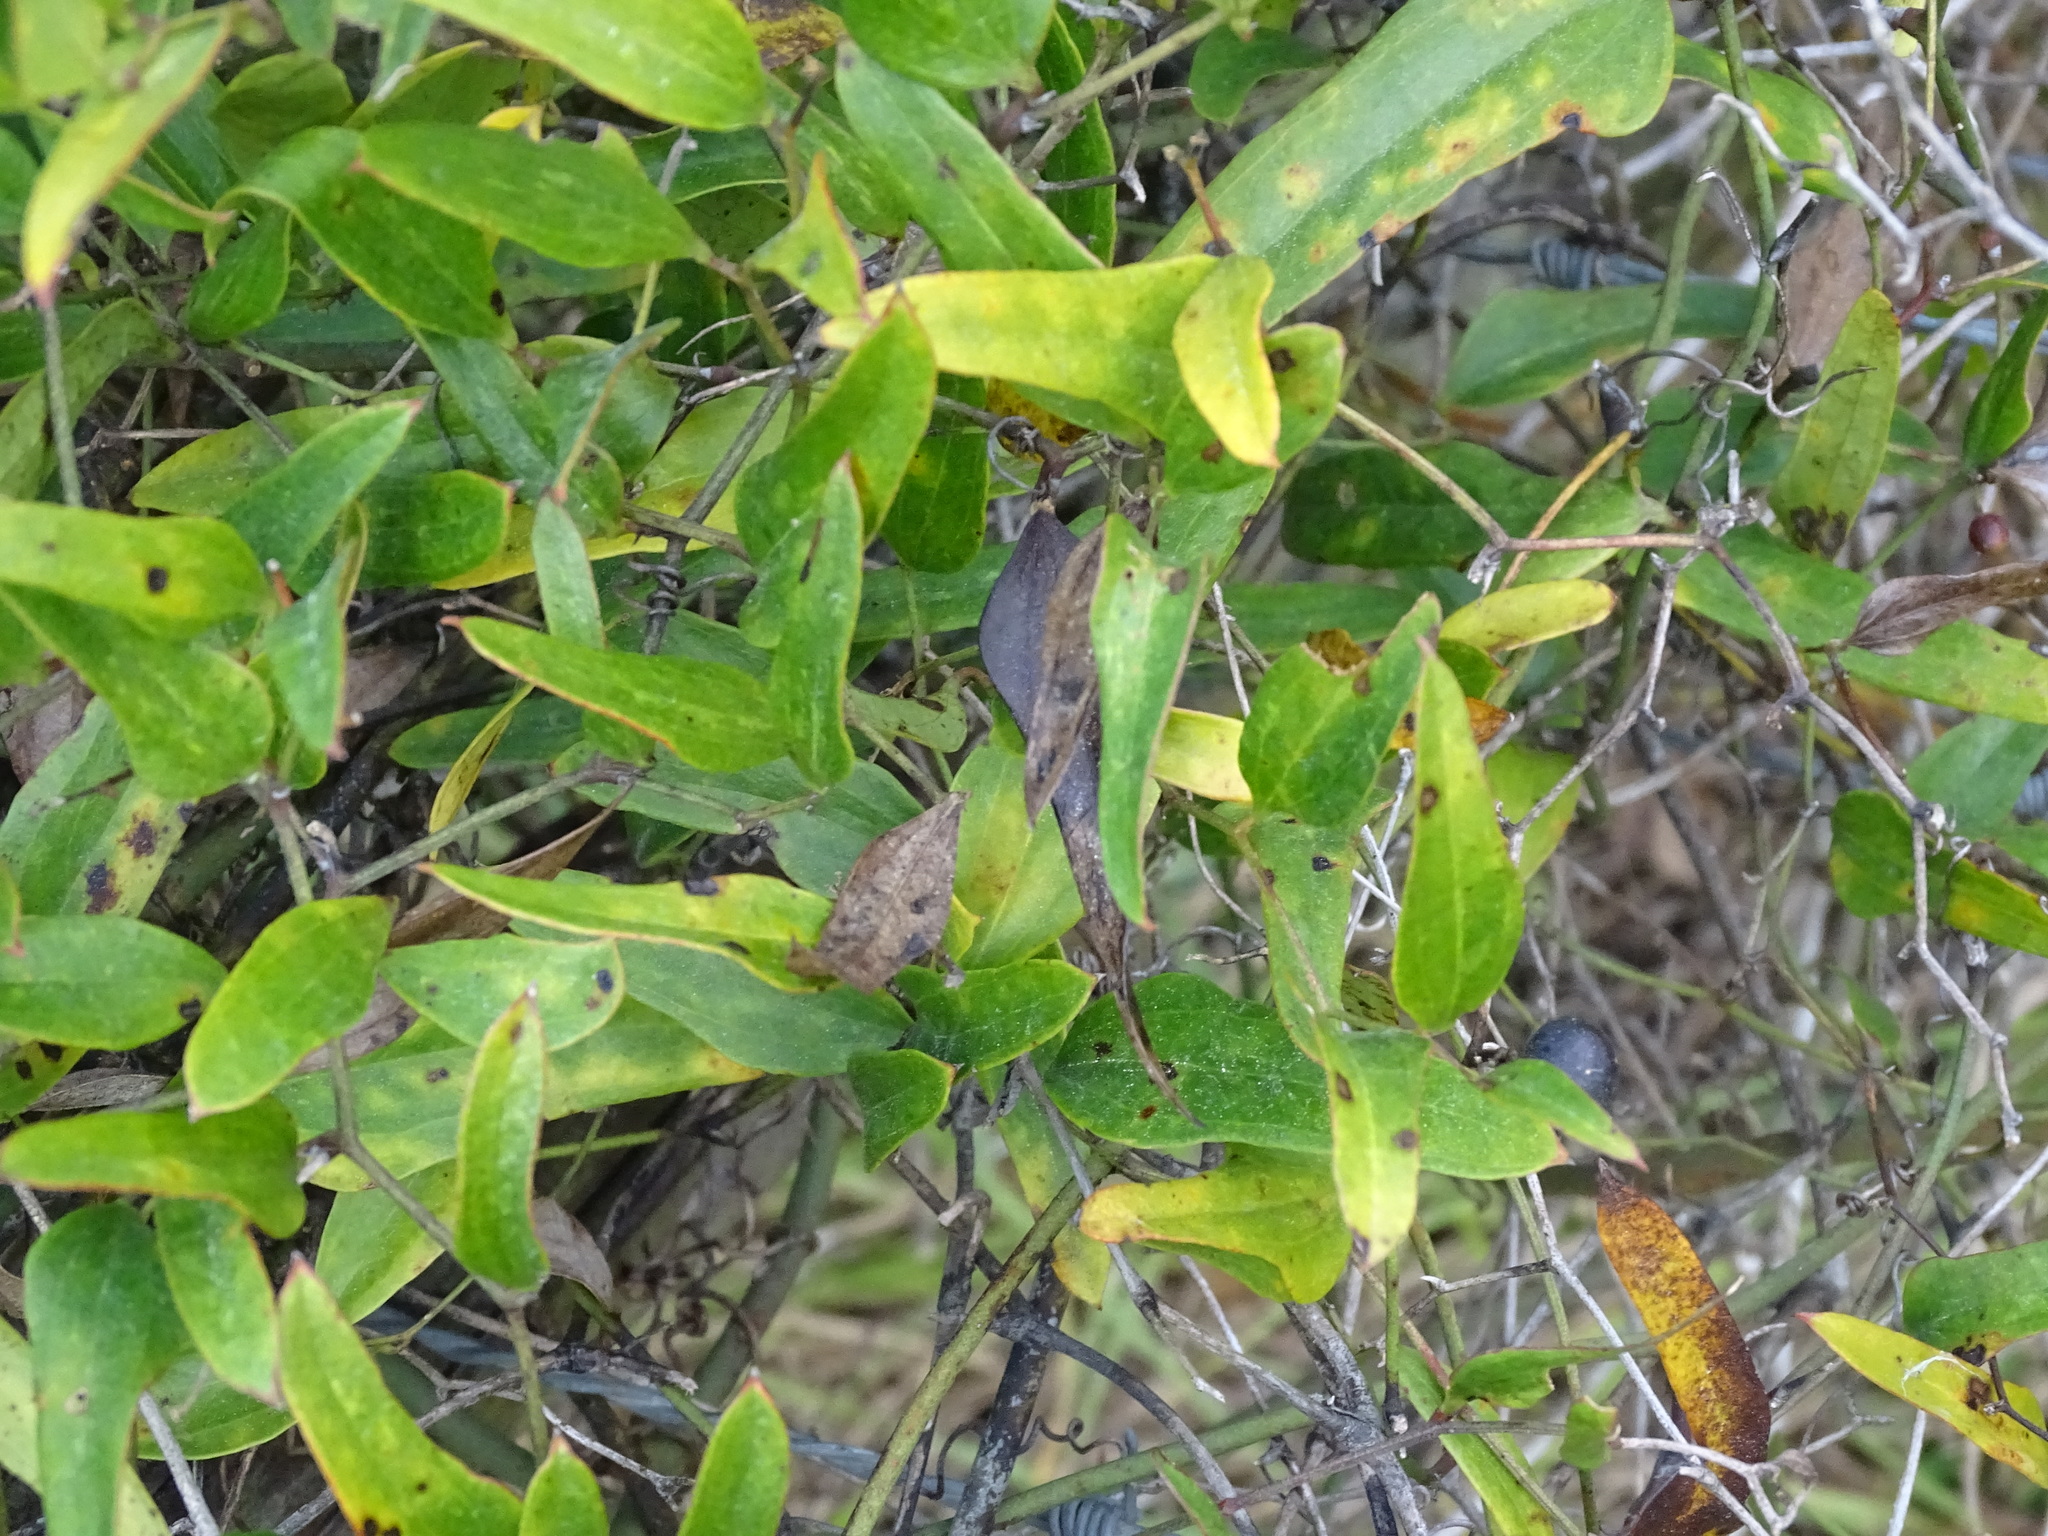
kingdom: Plantae
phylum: Tracheophyta
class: Liliopsida
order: Liliales
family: Smilacaceae
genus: Smilax
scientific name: Smilax auriculata
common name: Wild bamboo
